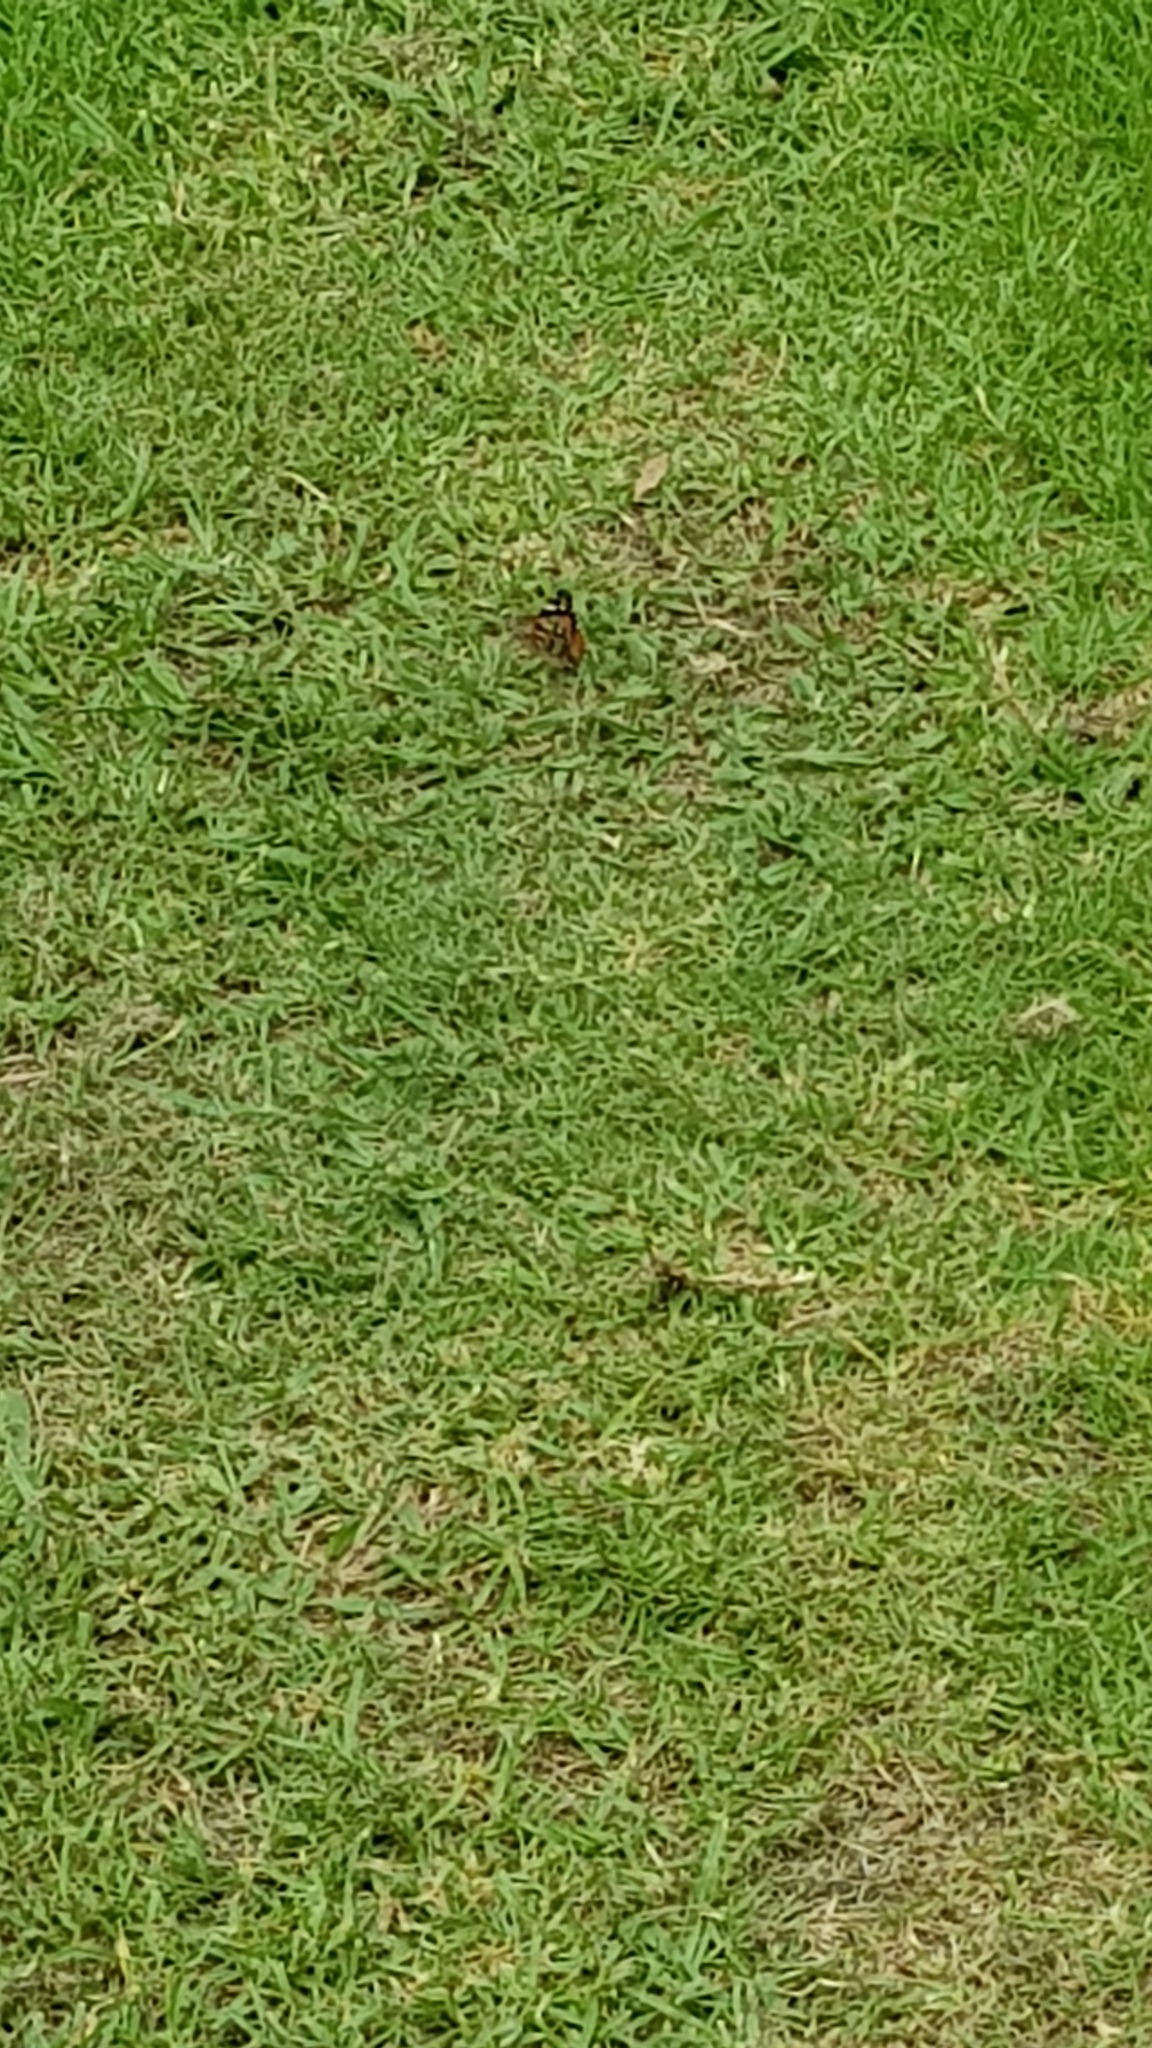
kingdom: Animalia
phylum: Arthropoda
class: Insecta
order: Lepidoptera
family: Nymphalidae
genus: Vanessa
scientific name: Vanessa kershawi
